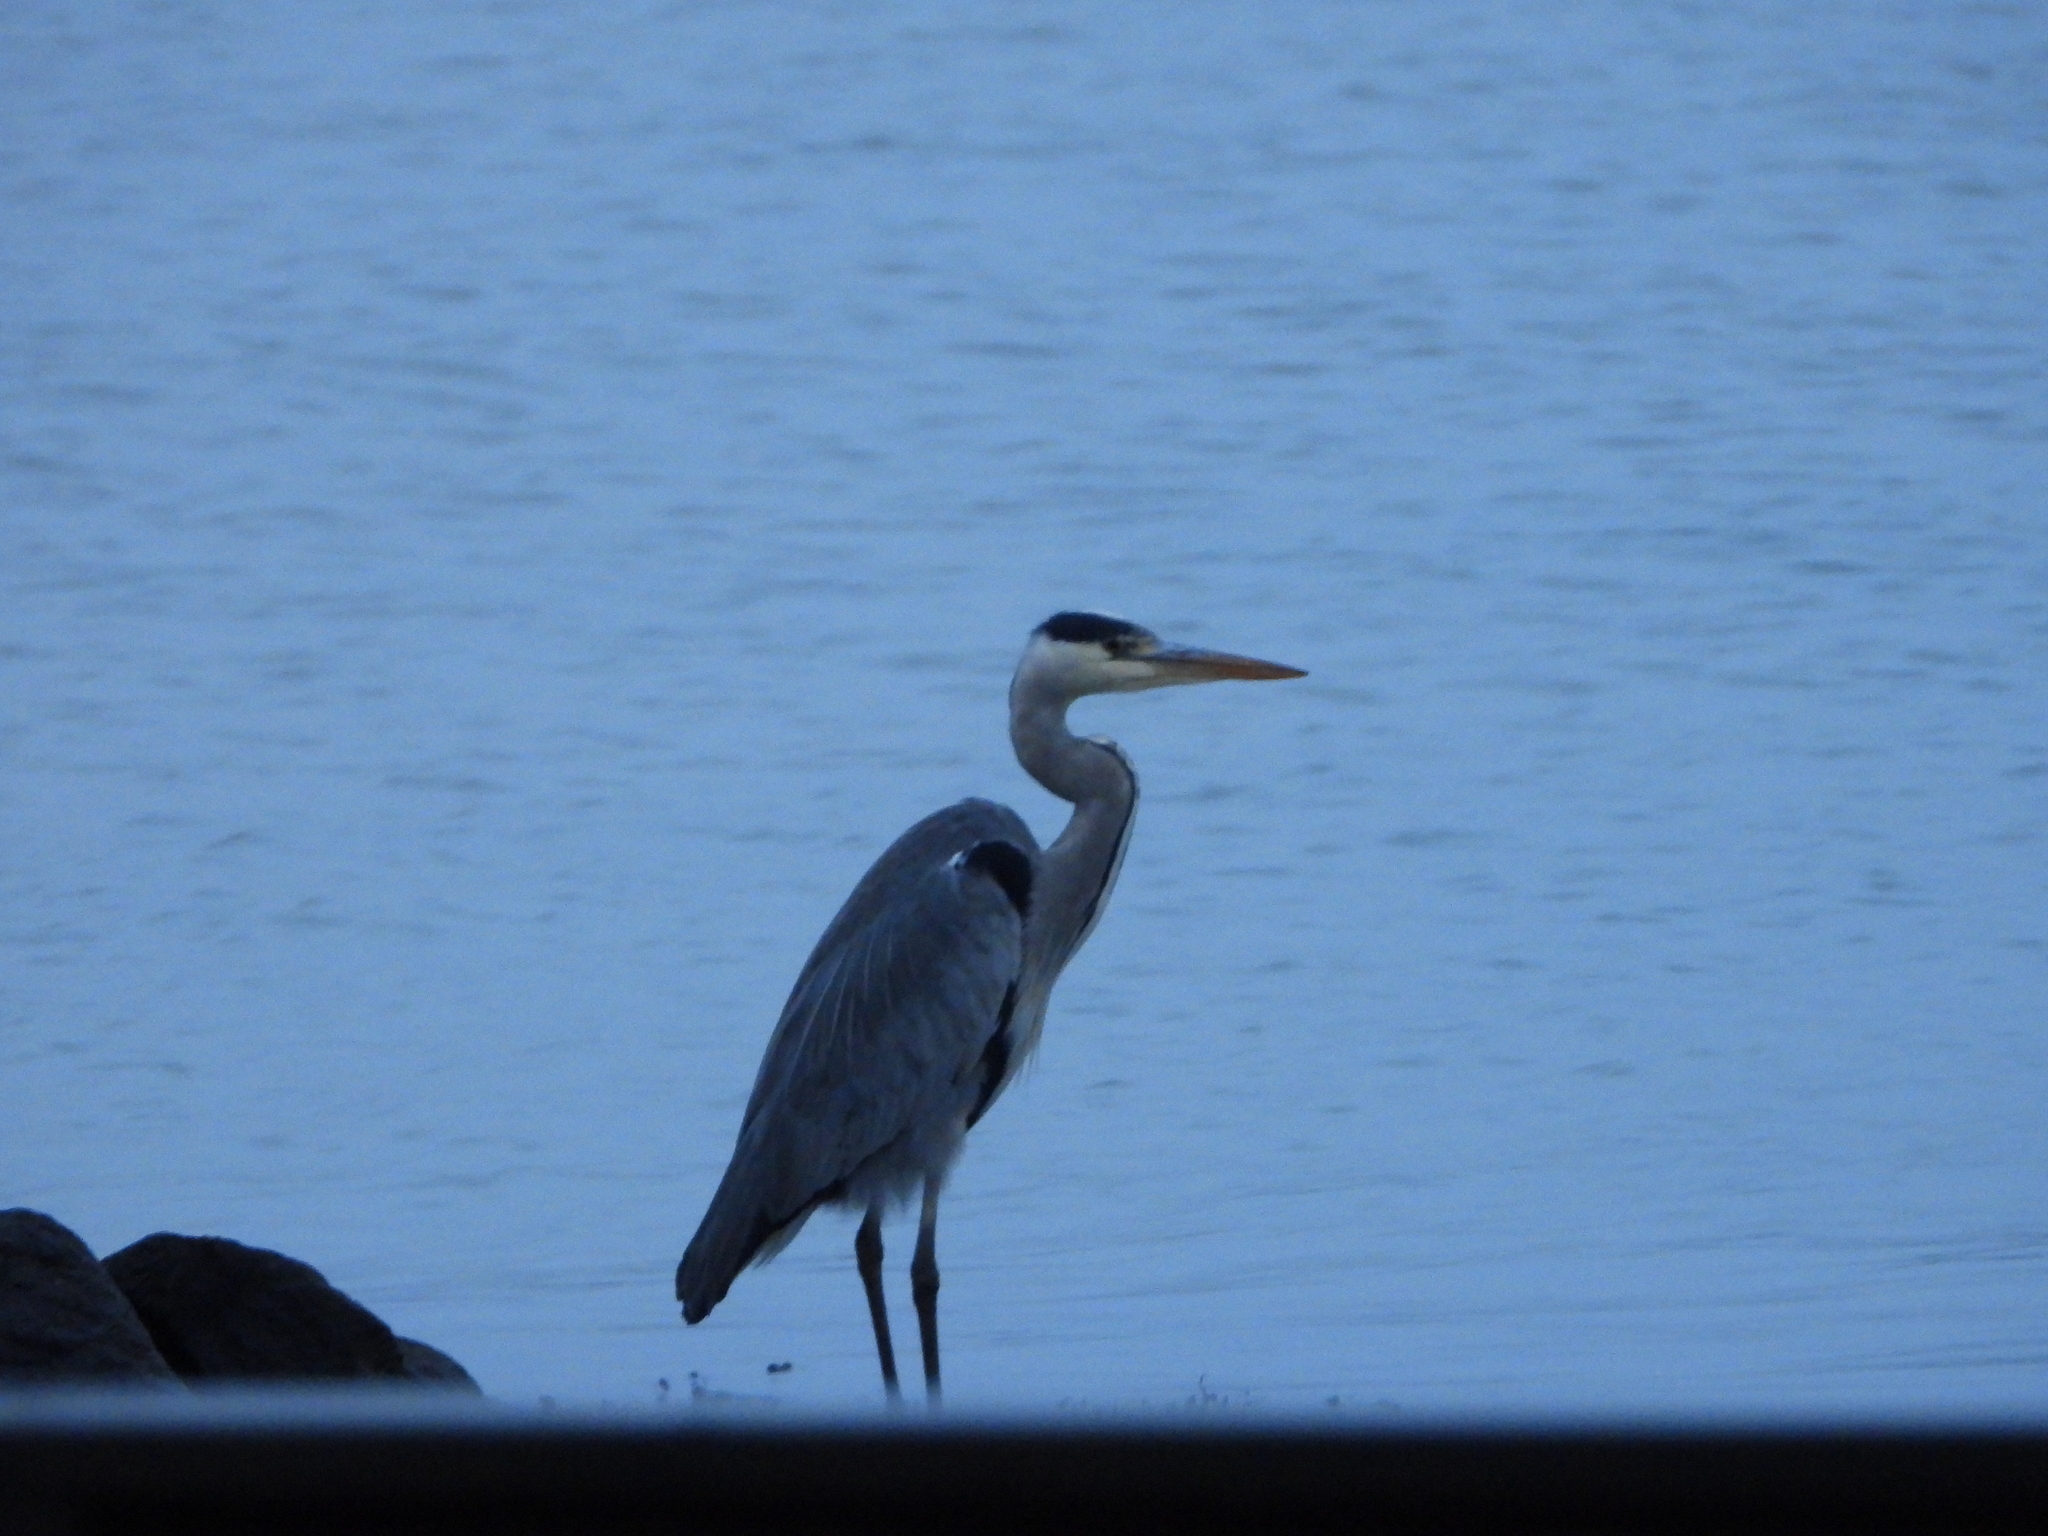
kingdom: Animalia
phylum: Chordata
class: Aves
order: Pelecaniformes
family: Ardeidae
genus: Ardea
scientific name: Ardea cinerea
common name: Grey heron
